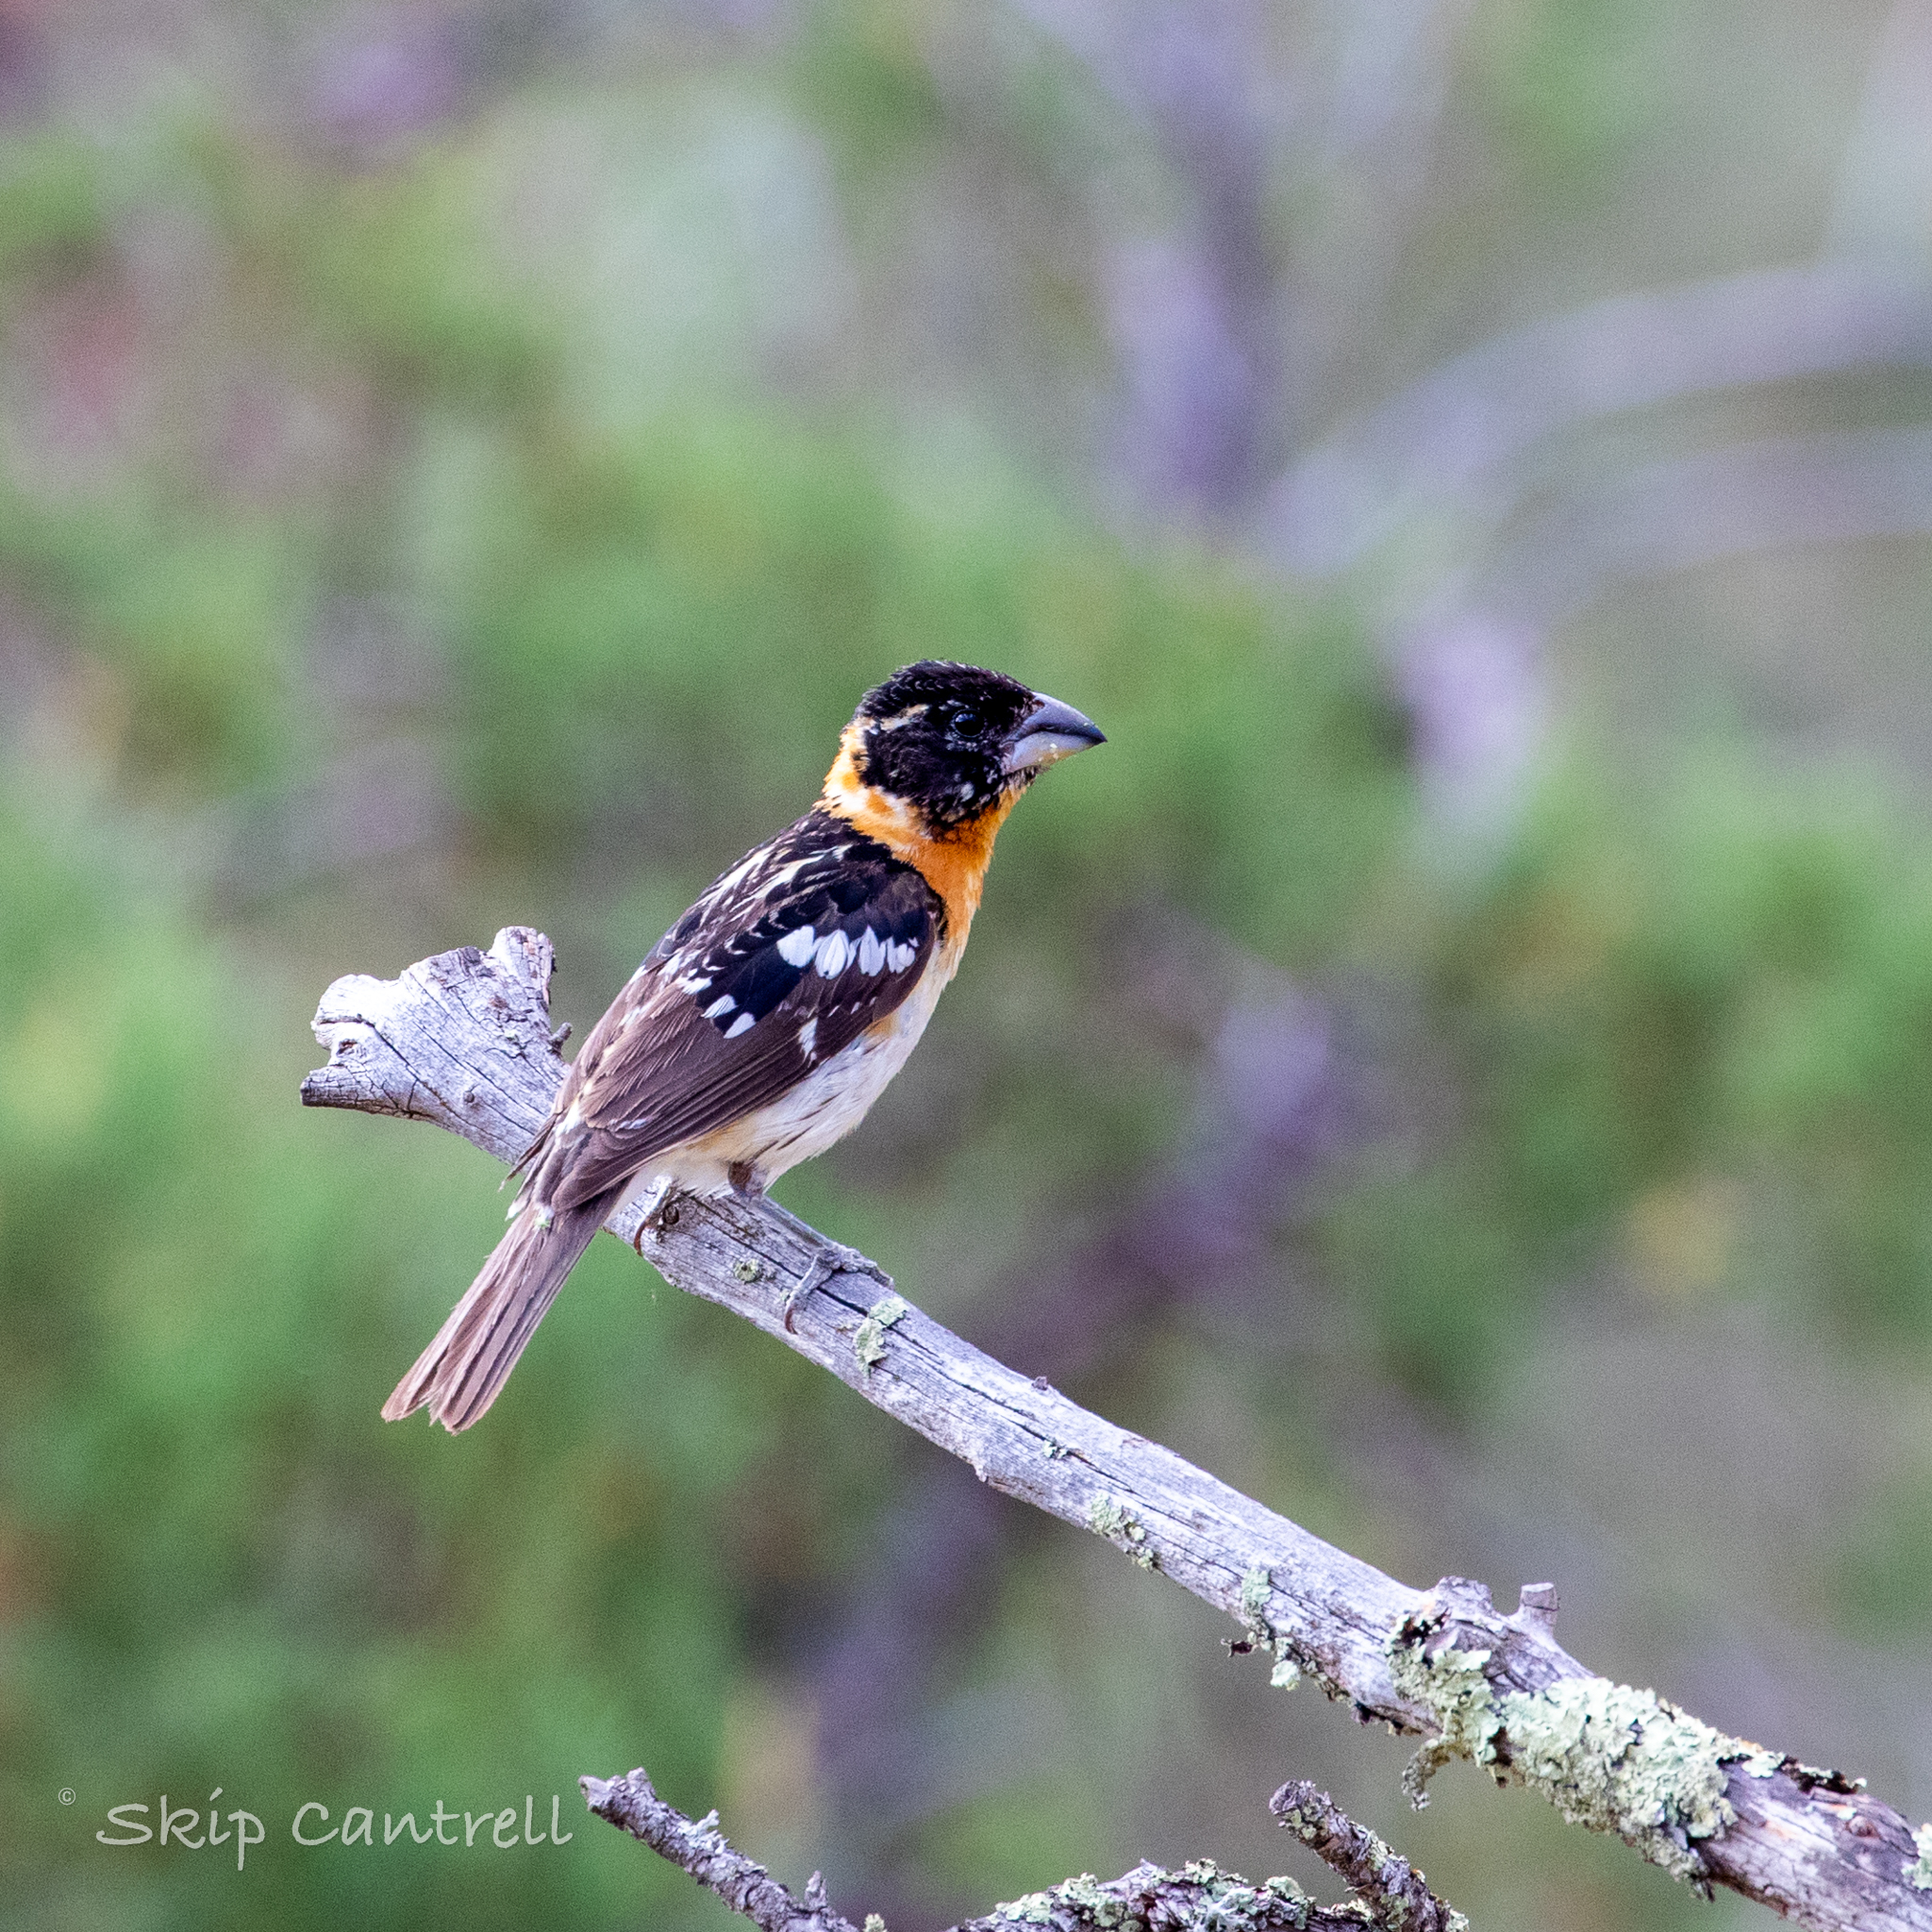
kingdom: Animalia
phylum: Chordata
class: Aves
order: Passeriformes
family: Cardinalidae
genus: Pheucticus
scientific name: Pheucticus melanocephalus
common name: Black-headed grosbeak
